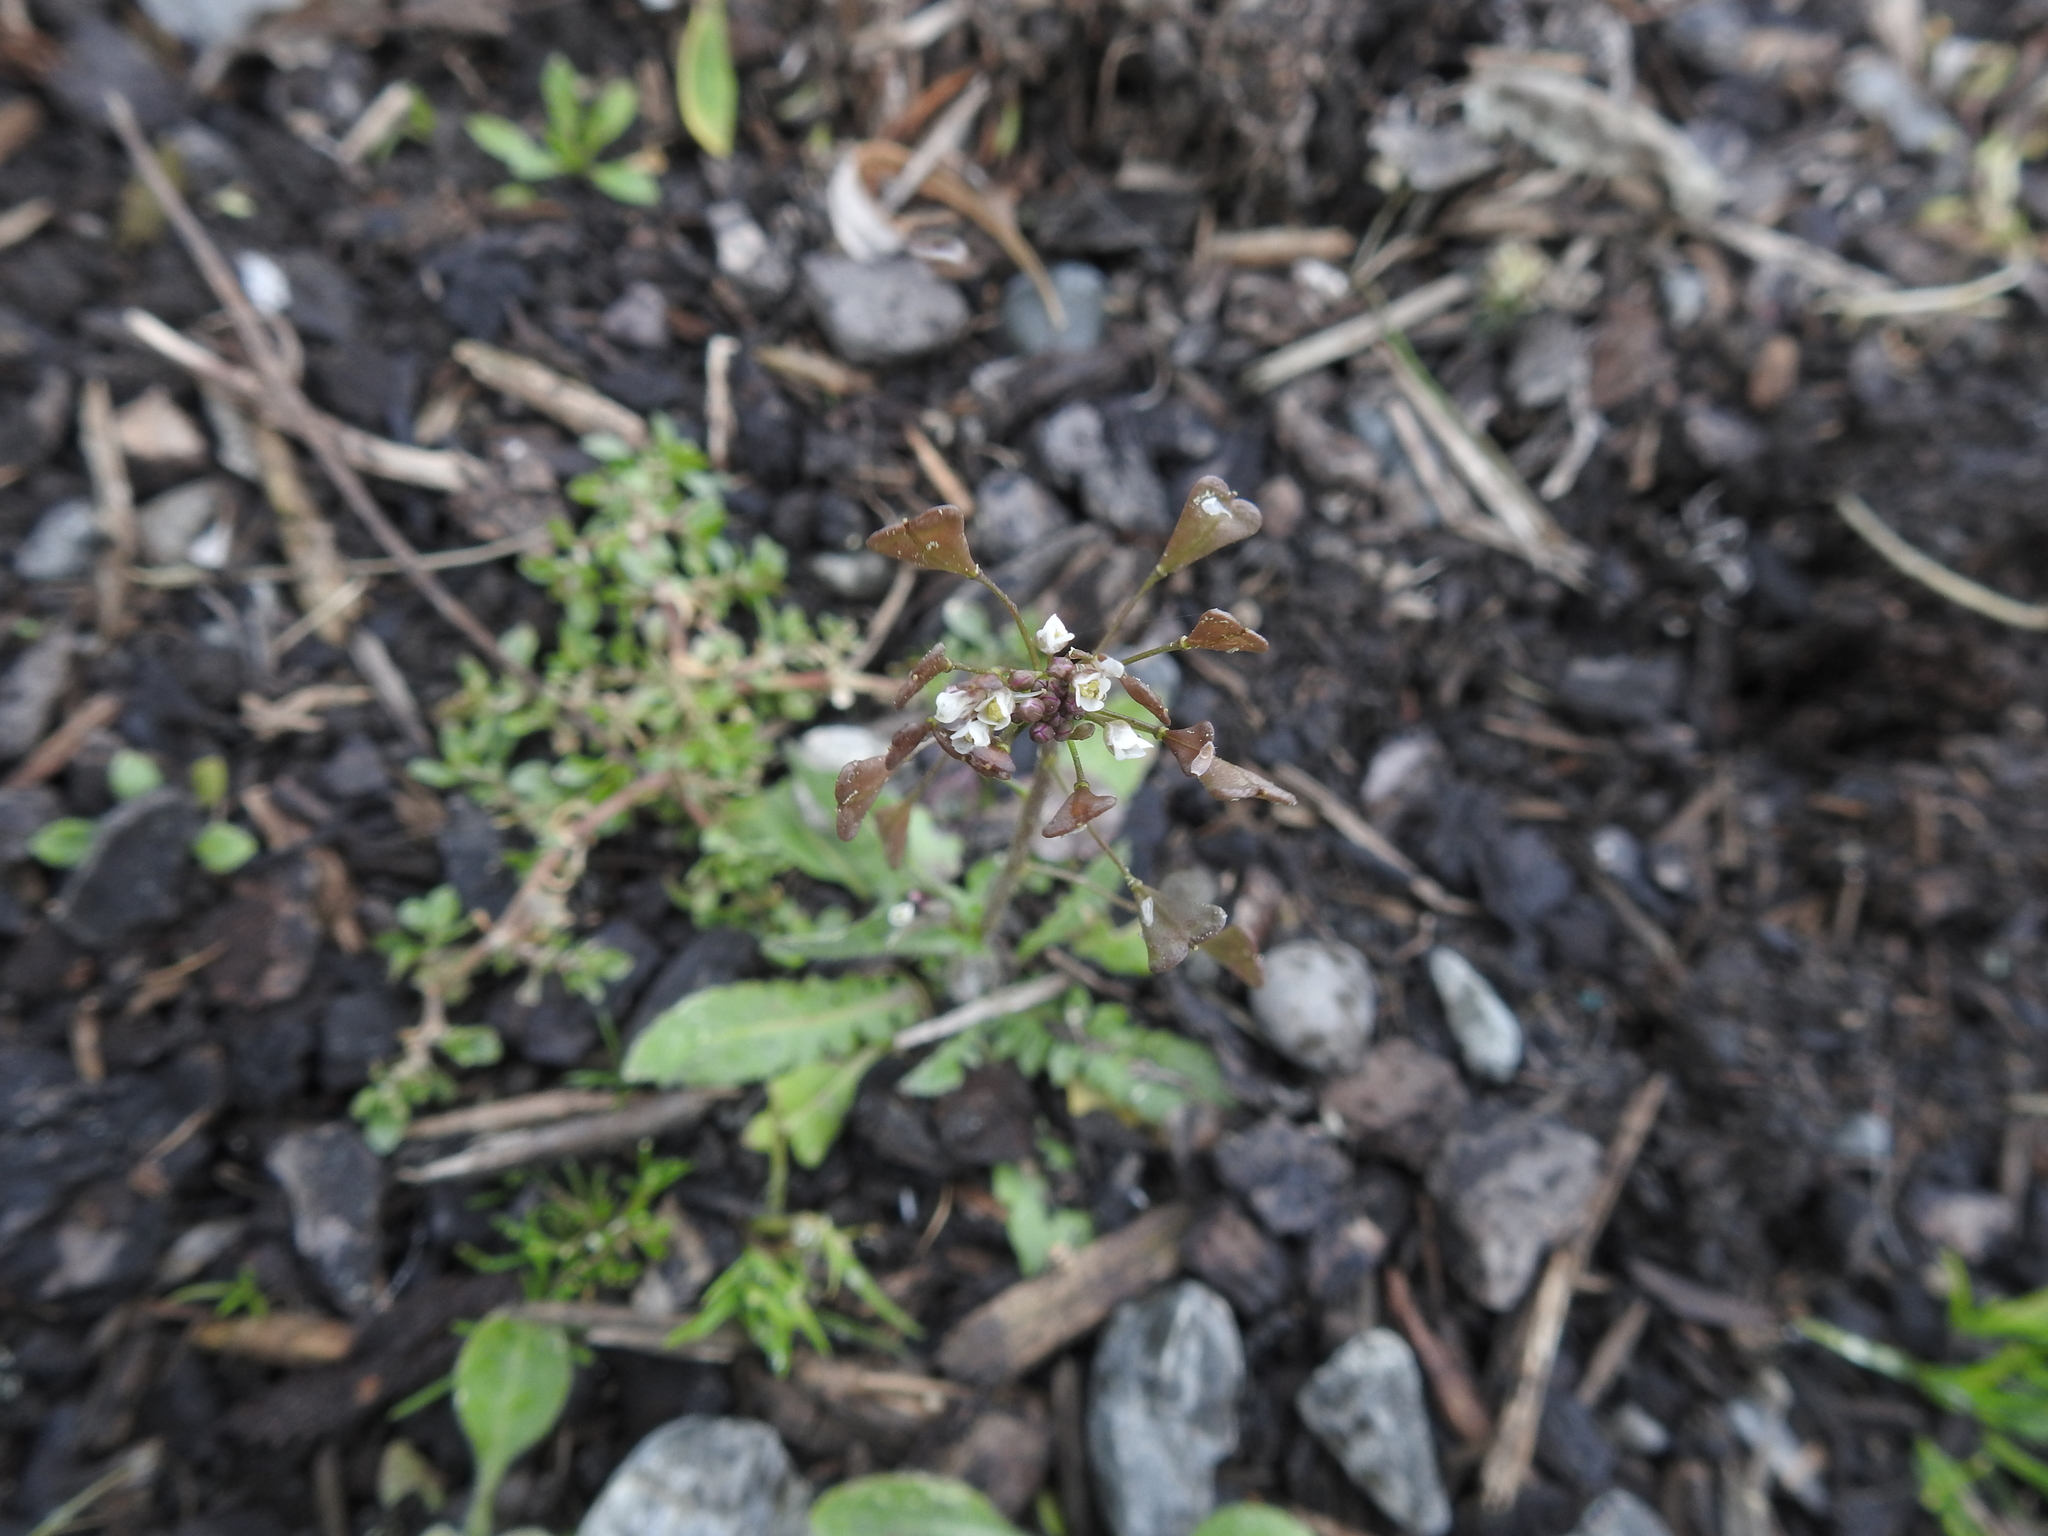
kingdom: Plantae
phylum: Tracheophyta
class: Magnoliopsida
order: Brassicales
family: Brassicaceae
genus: Capsella
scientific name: Capsella bursa-pastoris
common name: Shepherd's purse
